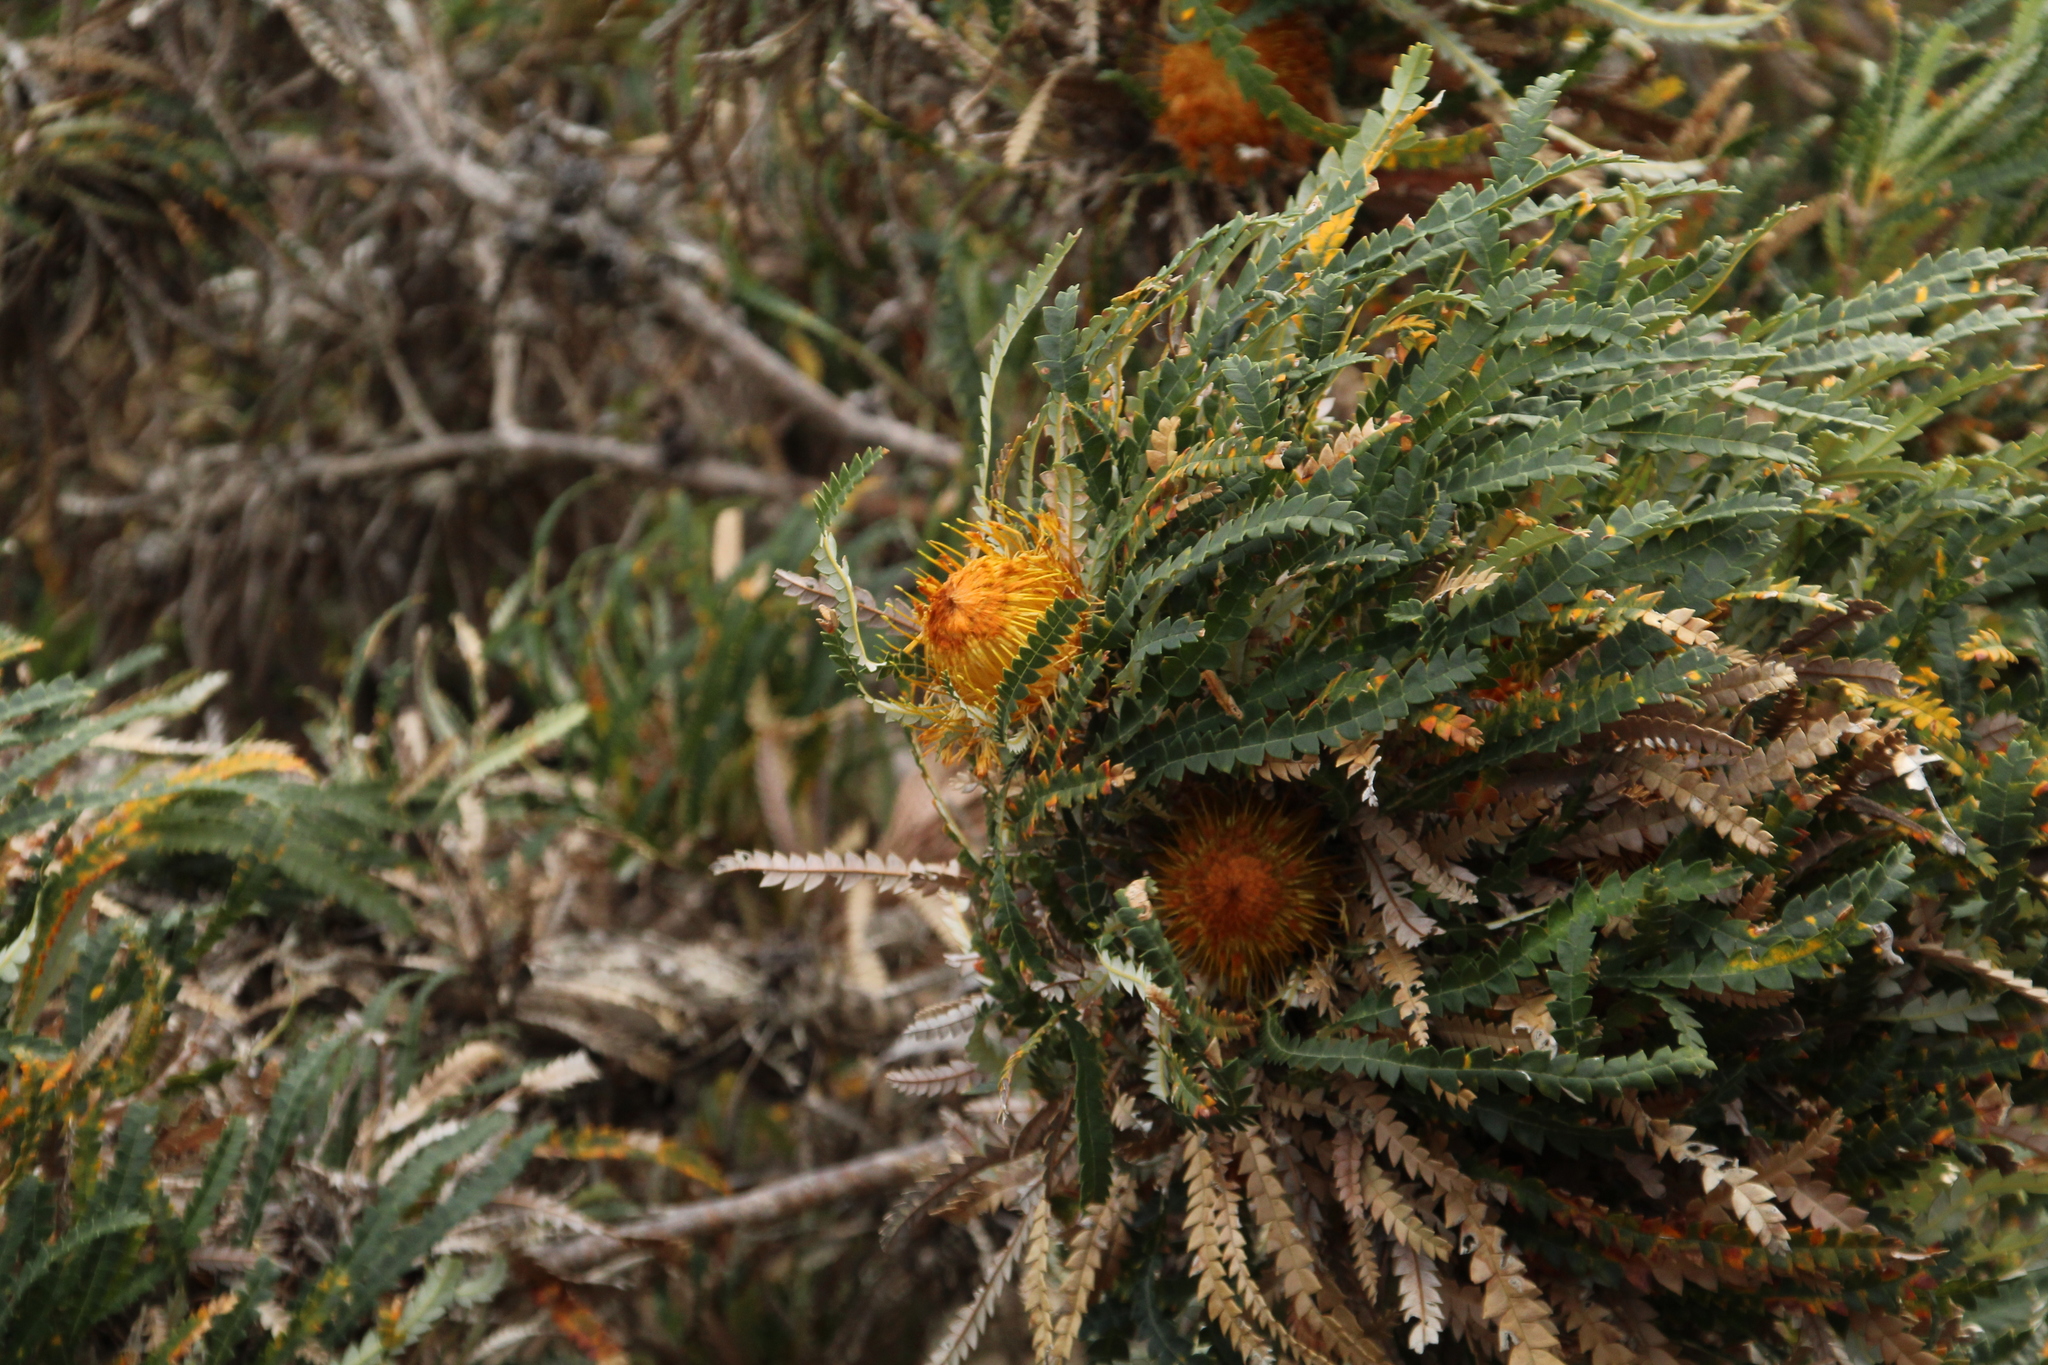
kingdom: Plantae
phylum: Tracheophyta
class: Magnoliopsida
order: Proteales
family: Proteaceae
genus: Banksia
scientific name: Banksia formosa
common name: Showy dryandra
